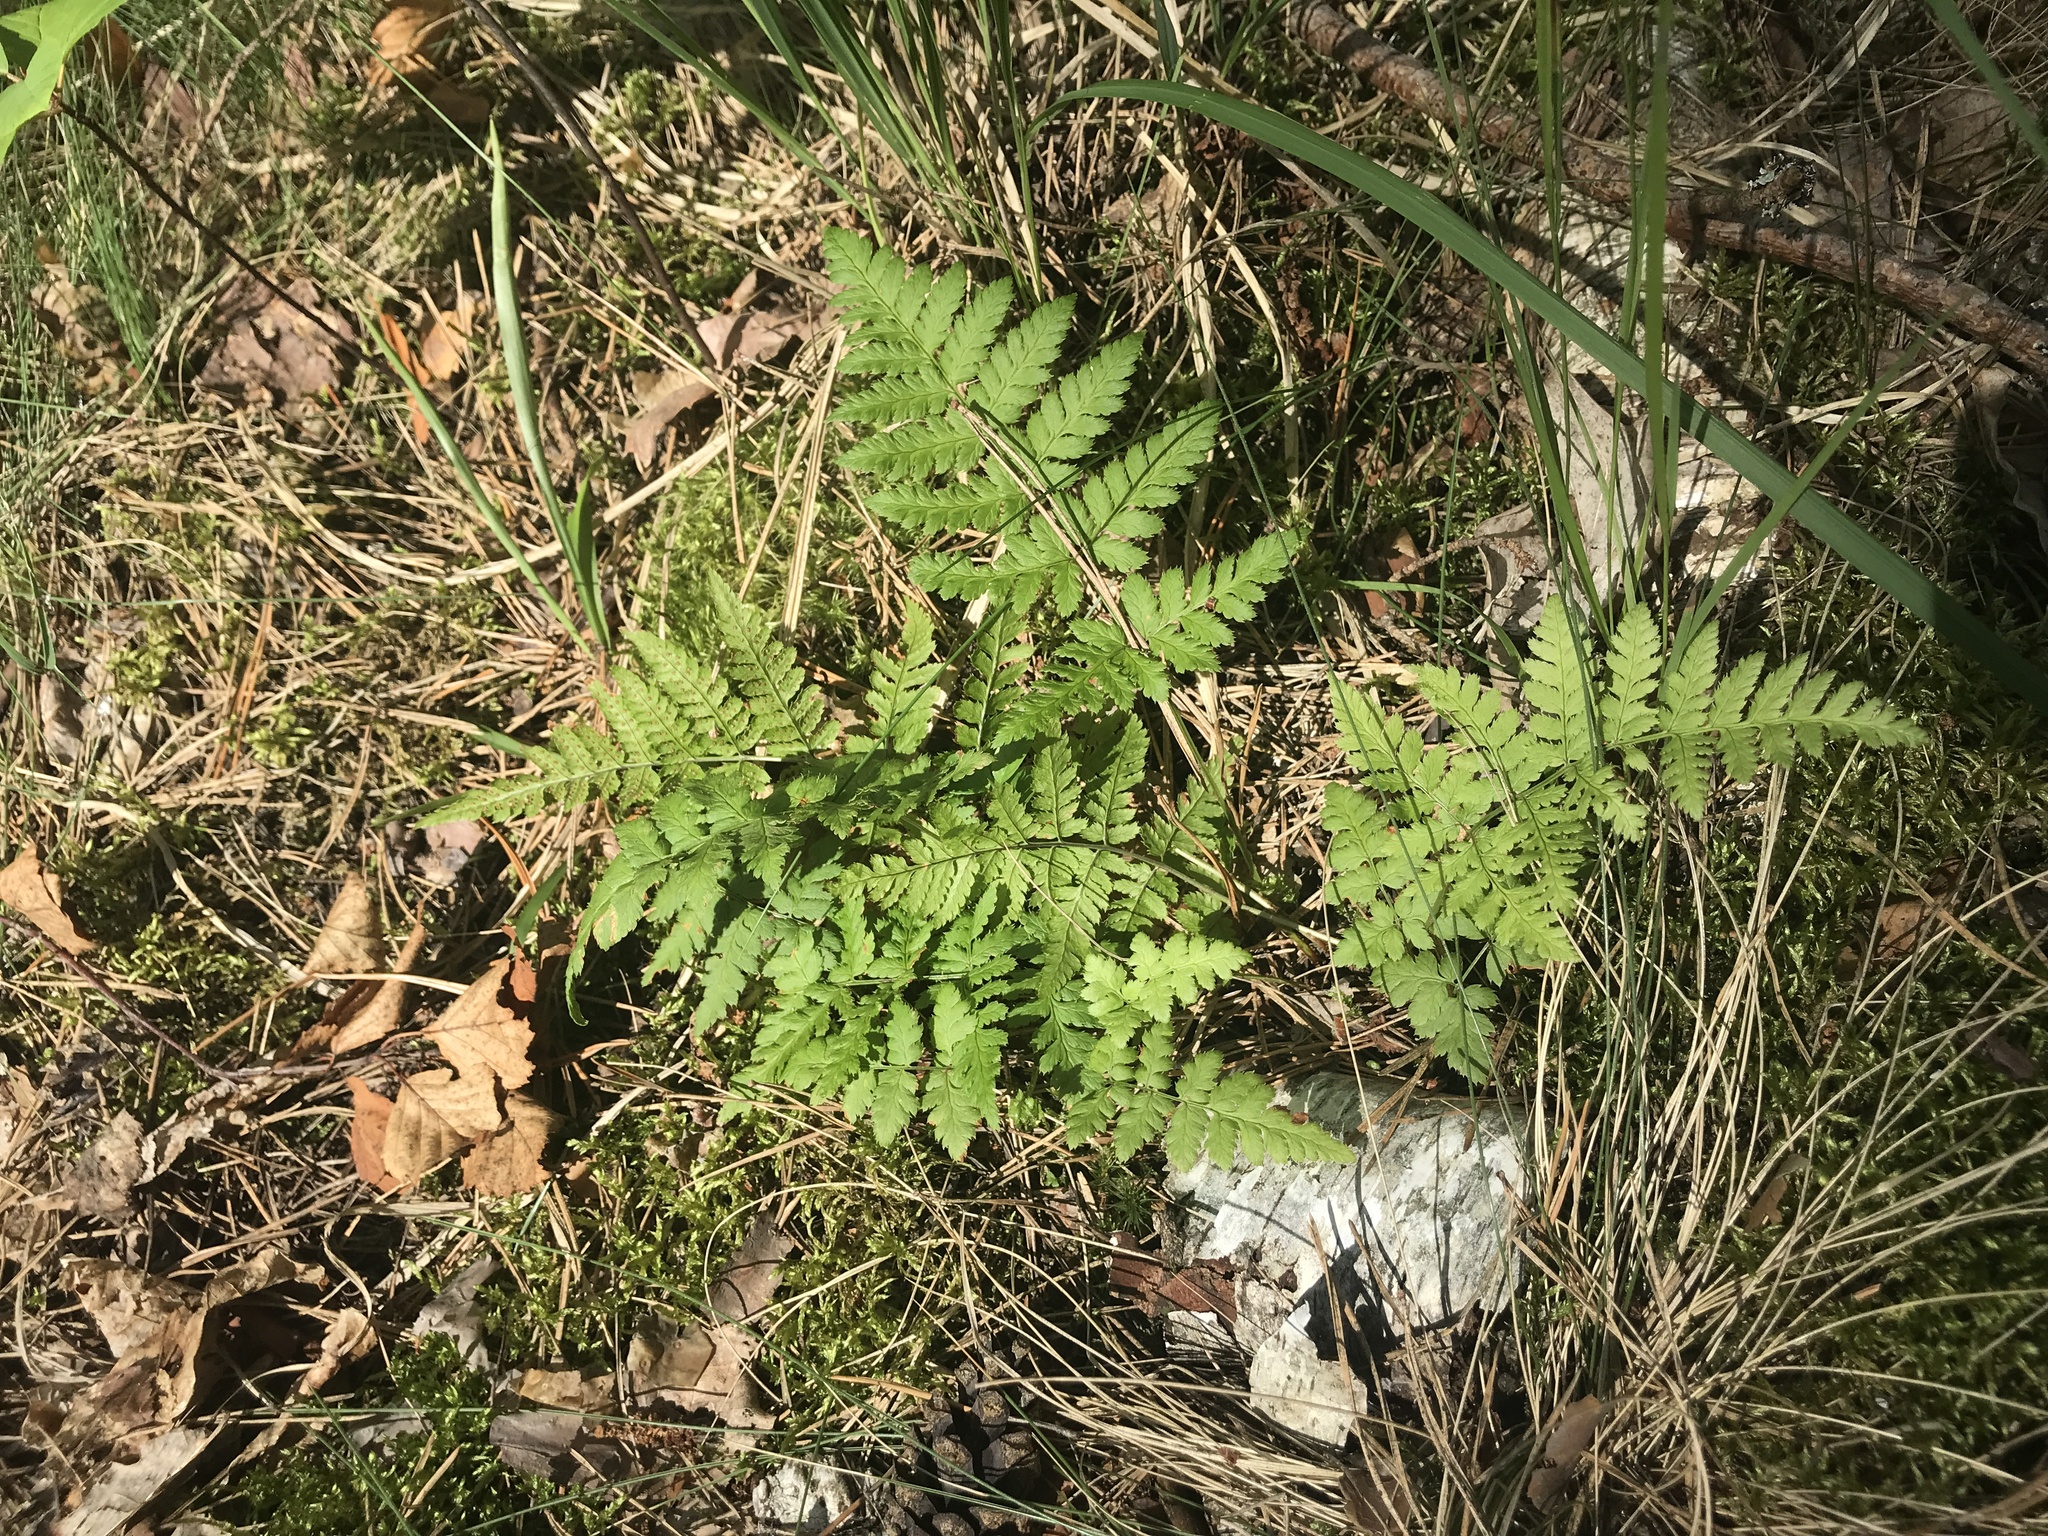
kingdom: Plantae
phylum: Tracheophyta
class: Polypodiopsida
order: Polypodiales
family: Dryopteridaceae
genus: Dryopteris
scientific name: Dryopteris carthusiana
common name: Narrow buckler-fern
